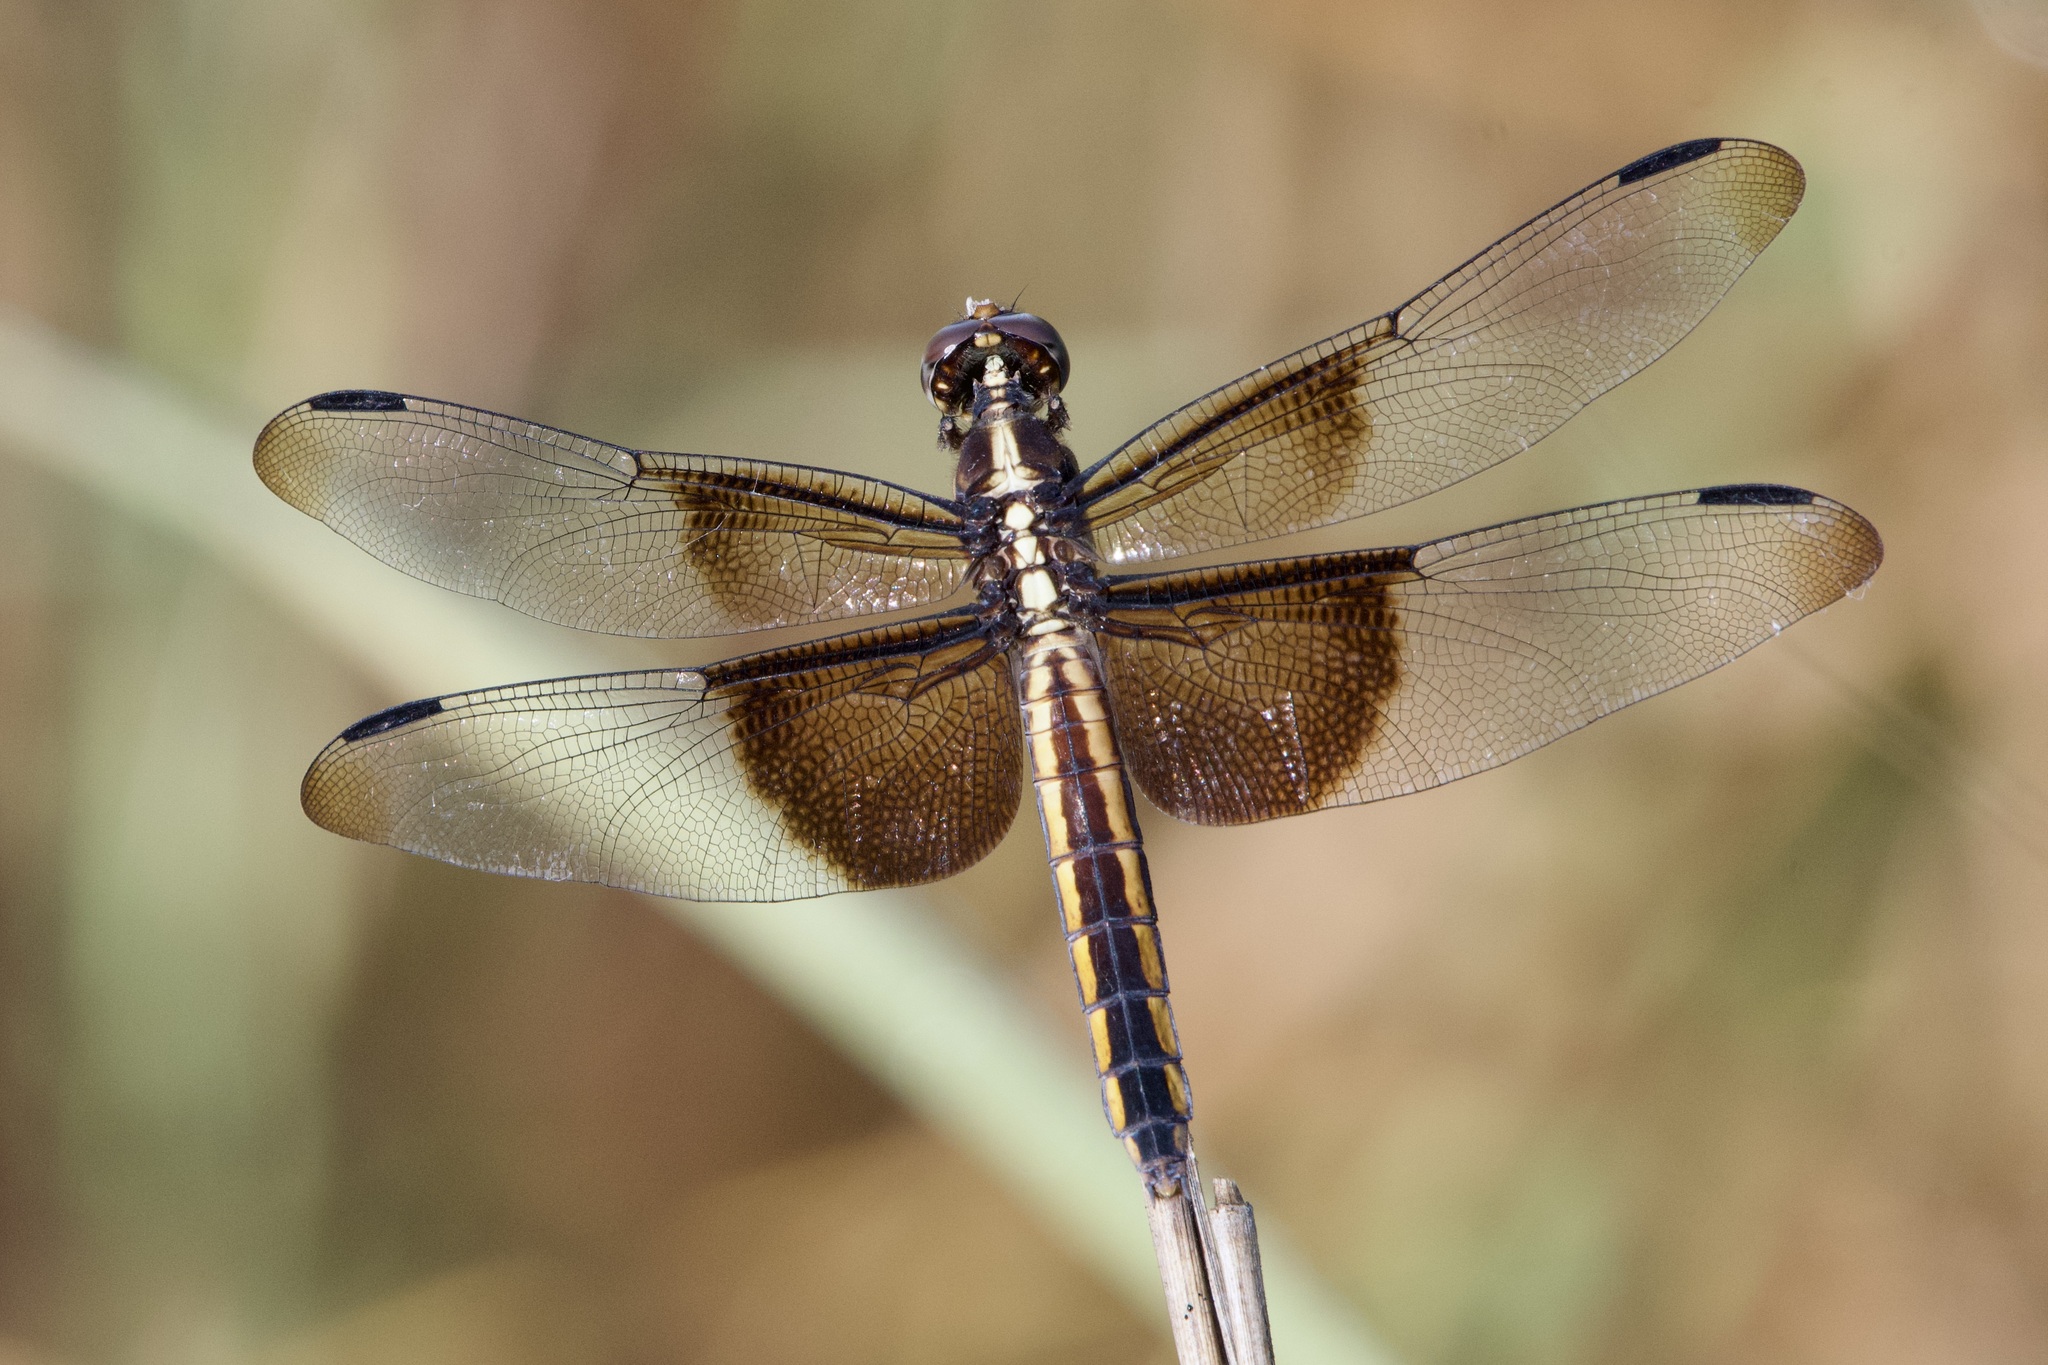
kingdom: Animalia
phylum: Arthropoda
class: Insecta
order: Odonata
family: Libellulidae
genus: Libellula
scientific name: Libellula luctuosa
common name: Widow skimmer
